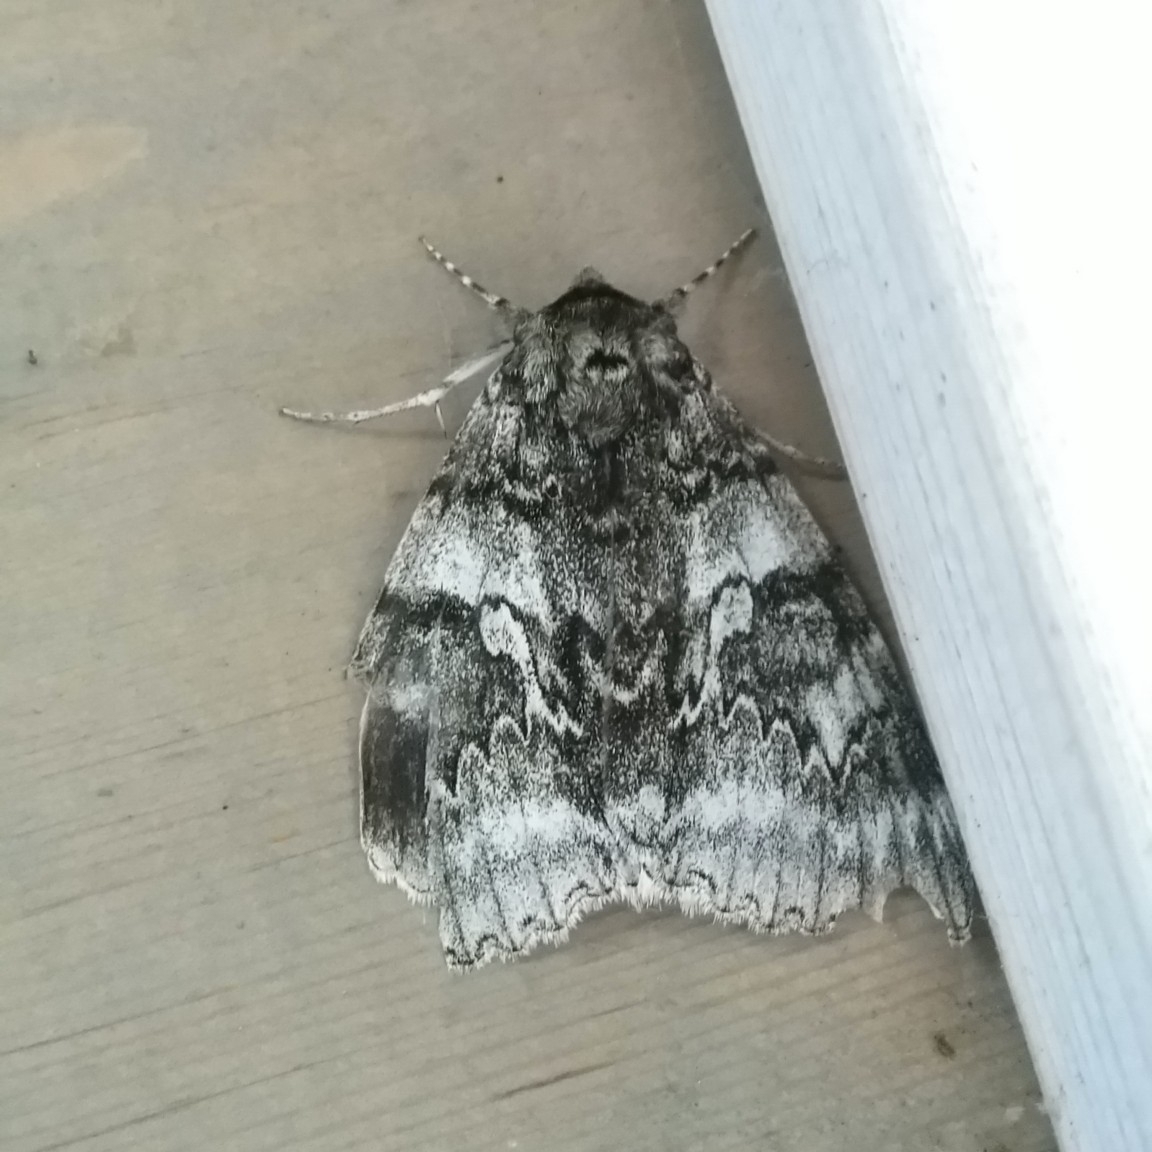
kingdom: Animalia
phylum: Arthropoda
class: Insecta
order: Lepidoptera
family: Erebidae
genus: Catocala
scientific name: Catocala fraxini
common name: Clifden nonpareil
